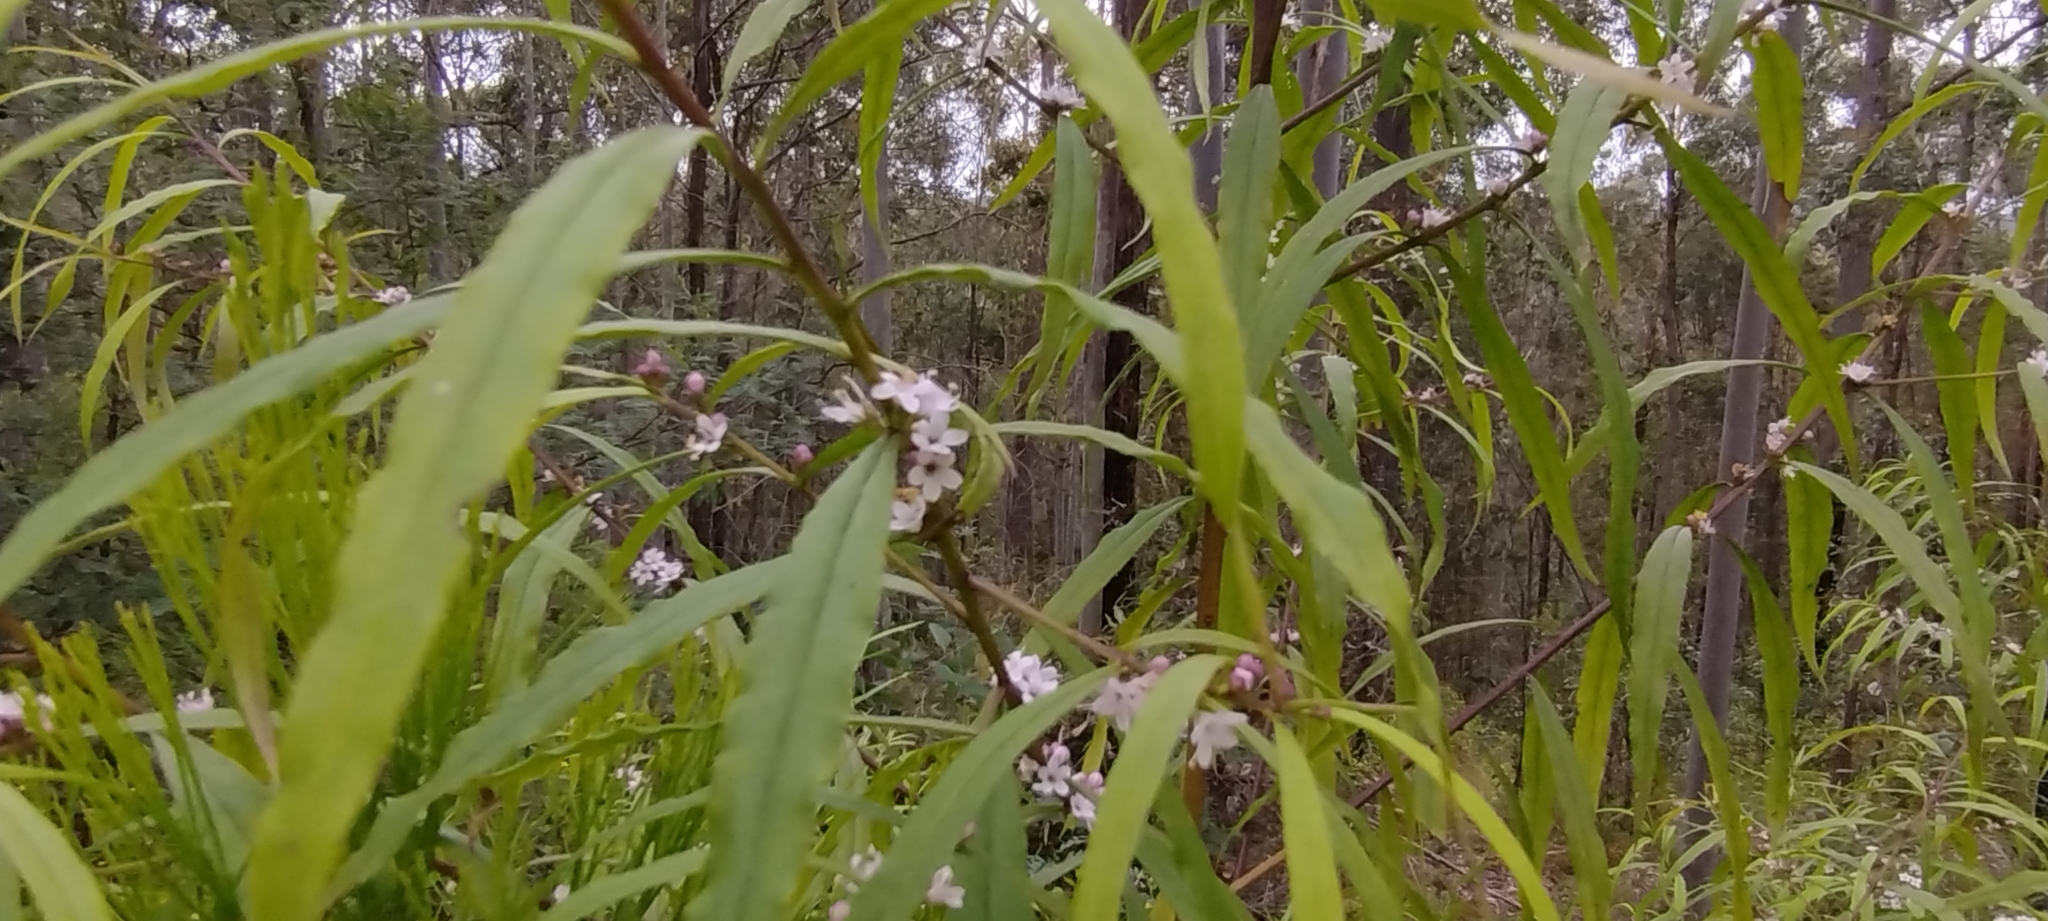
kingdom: Plantae
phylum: Tracheophyta
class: Magnoliopsida
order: Lamiales
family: Scrophulariaceae
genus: Myoporum
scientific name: Myoporum bateae
